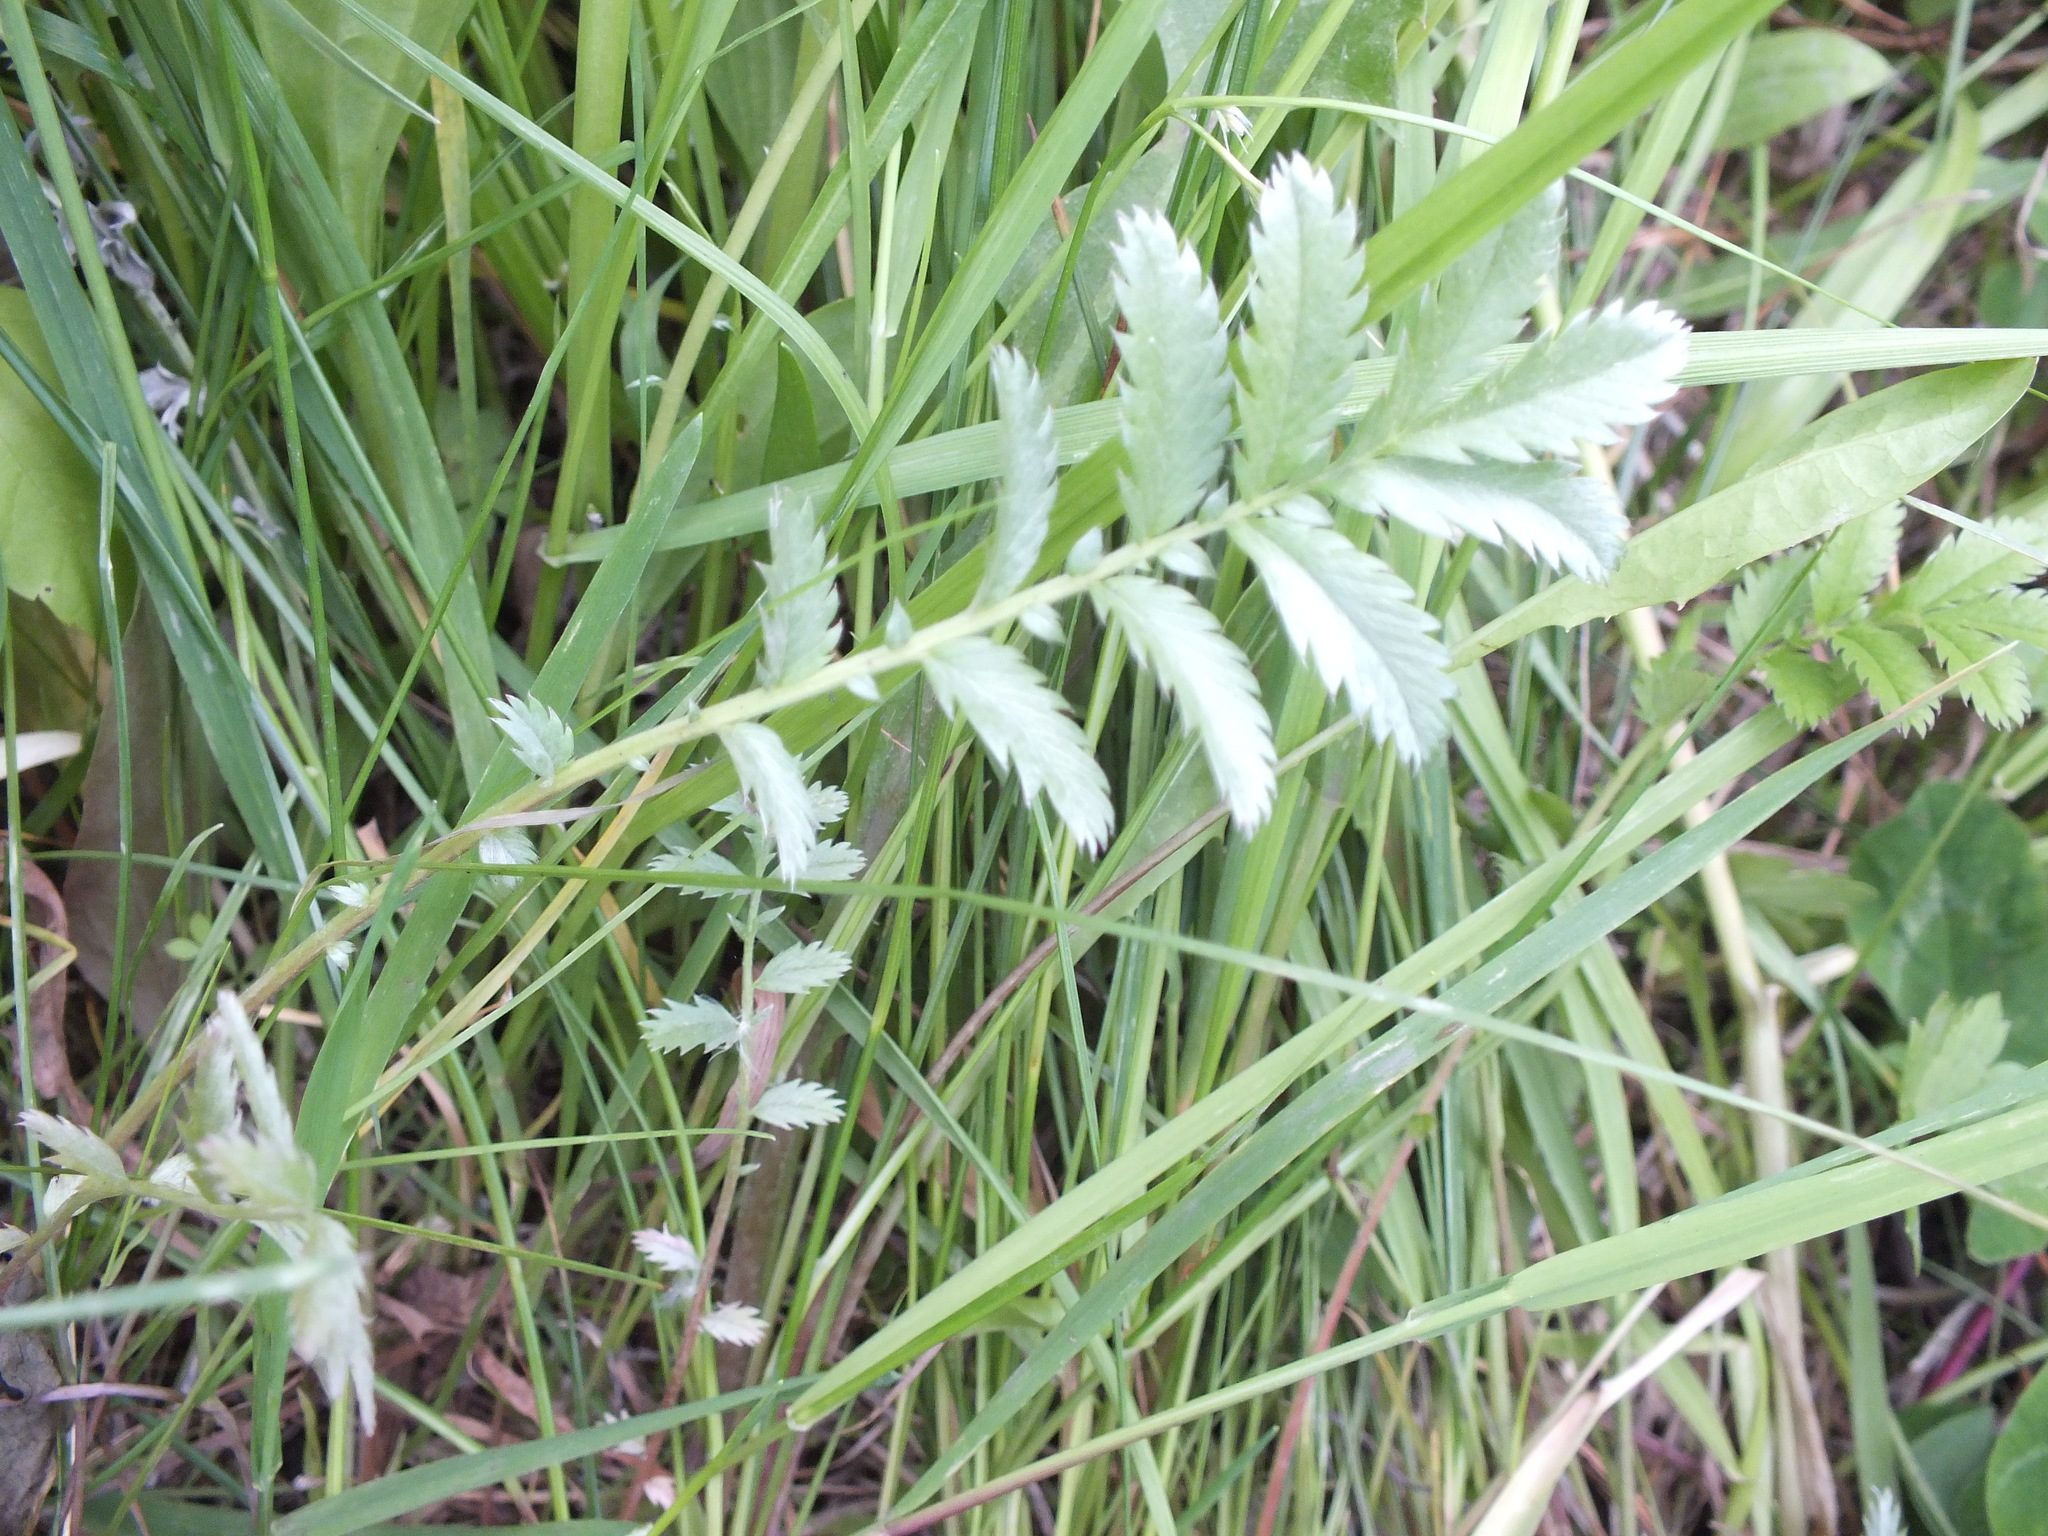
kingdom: Plantae
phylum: Tracheophyta
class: Magnoliopsida
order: Rosales
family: Rosaceae
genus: Argentina
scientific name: Argentina anserina
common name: Common silverweed
